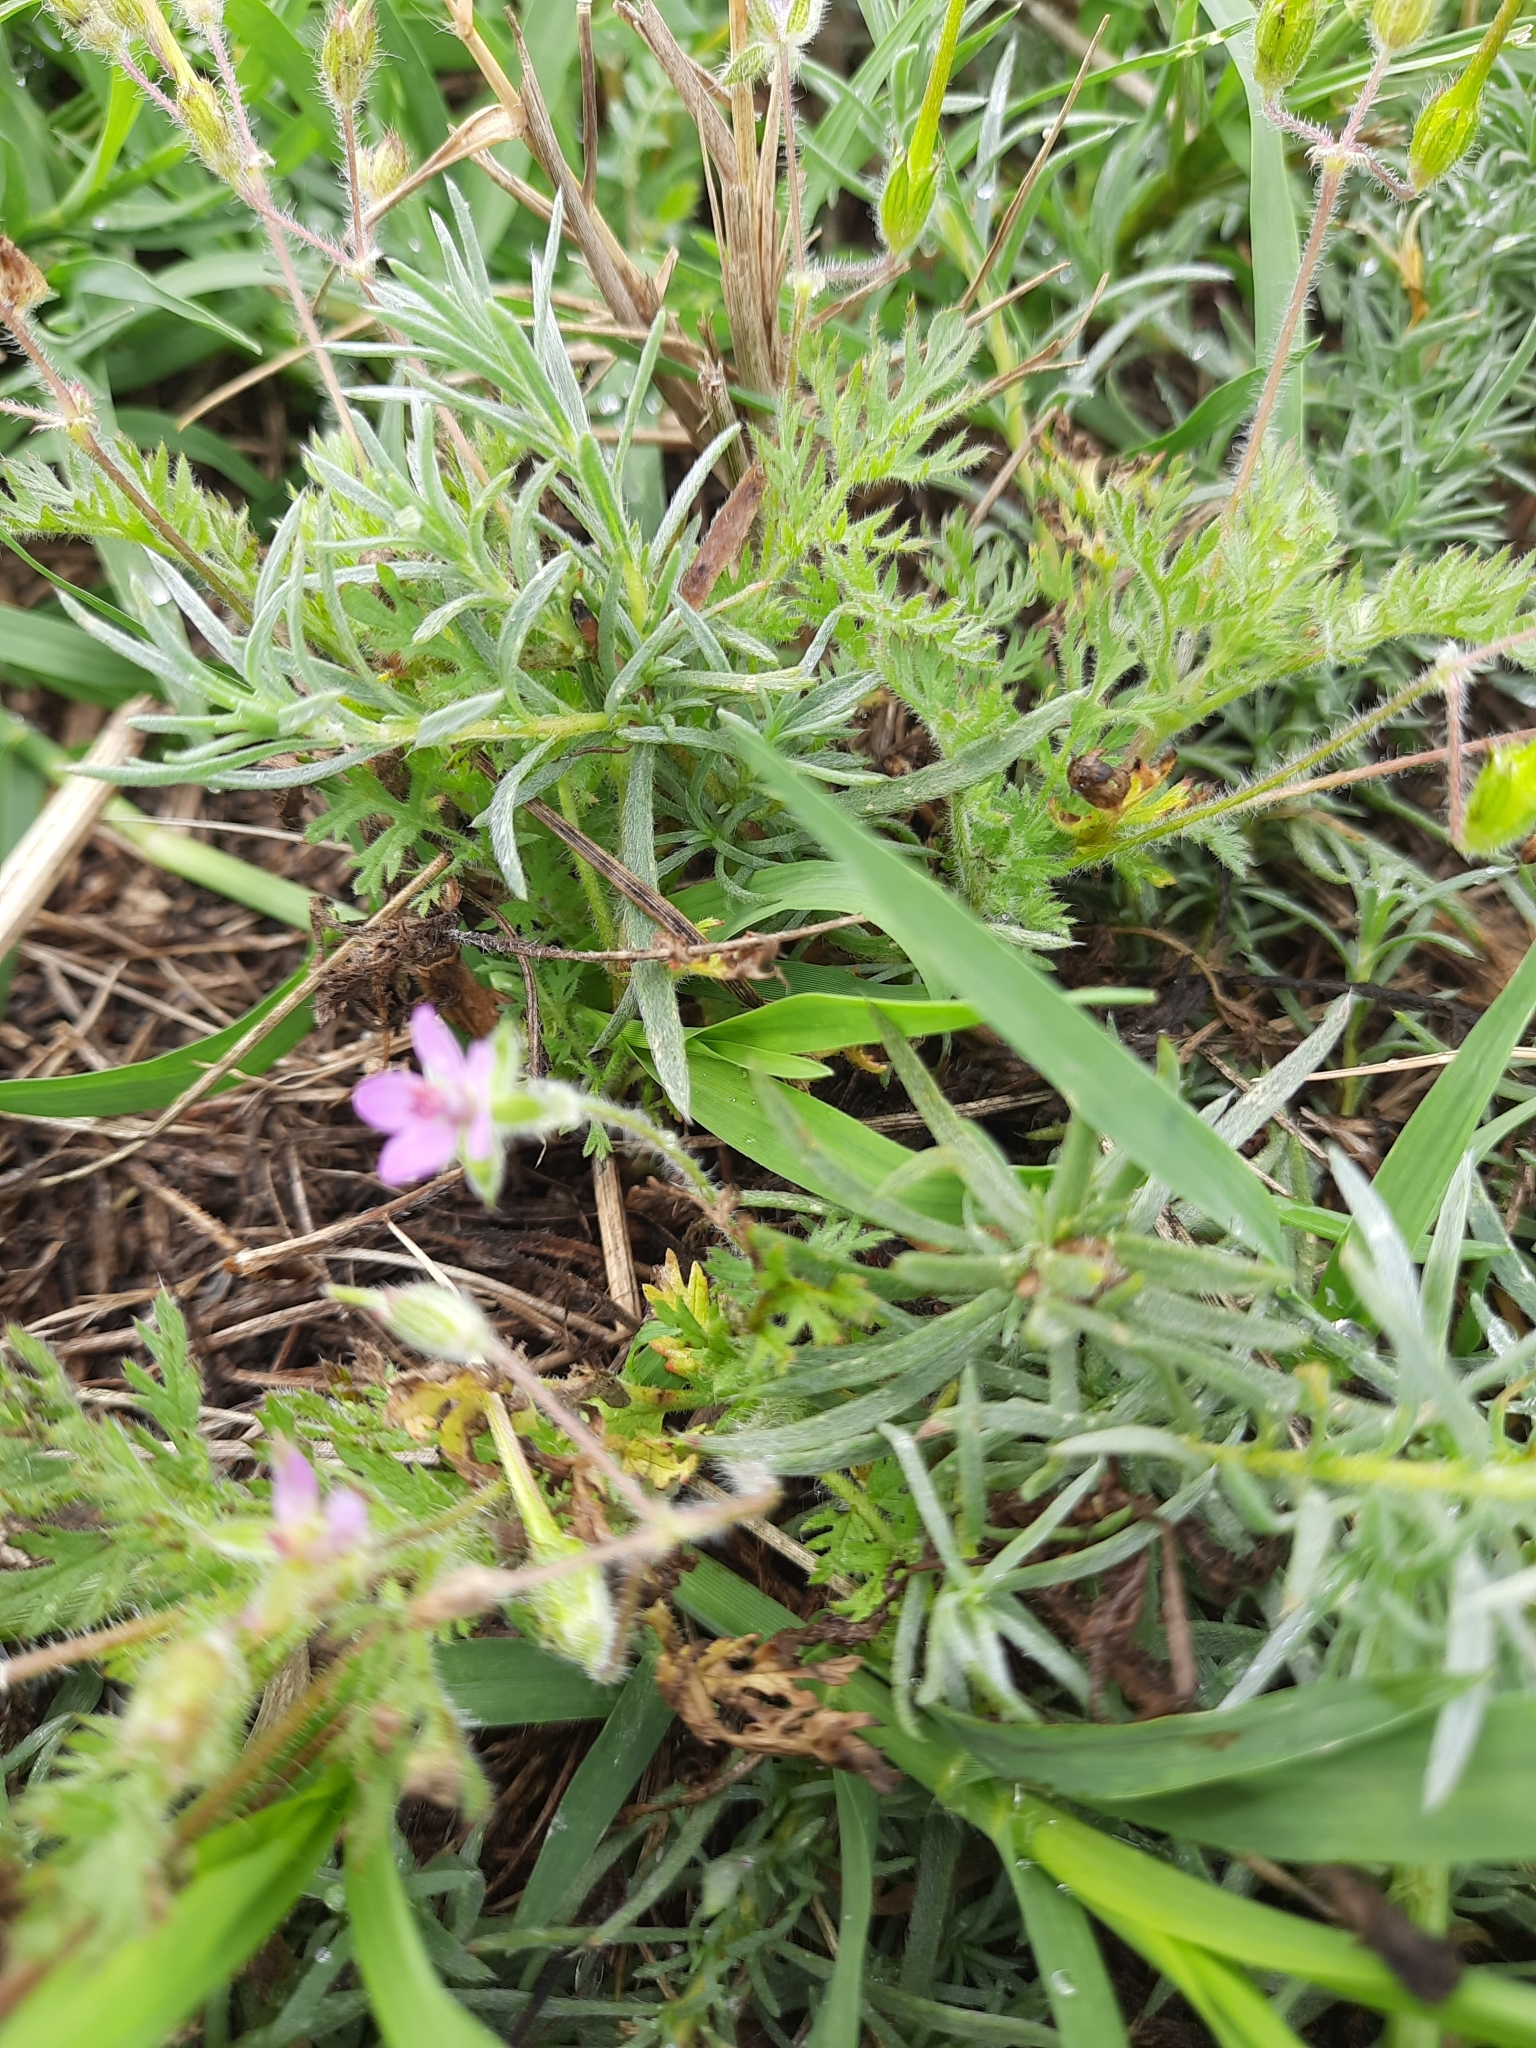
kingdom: Plantae
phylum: Tracheophyta
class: Magnoliopsida
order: Geraniales
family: Geraniaceae
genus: Erodium
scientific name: Erodium cicutarium
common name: Common stork's-bill
